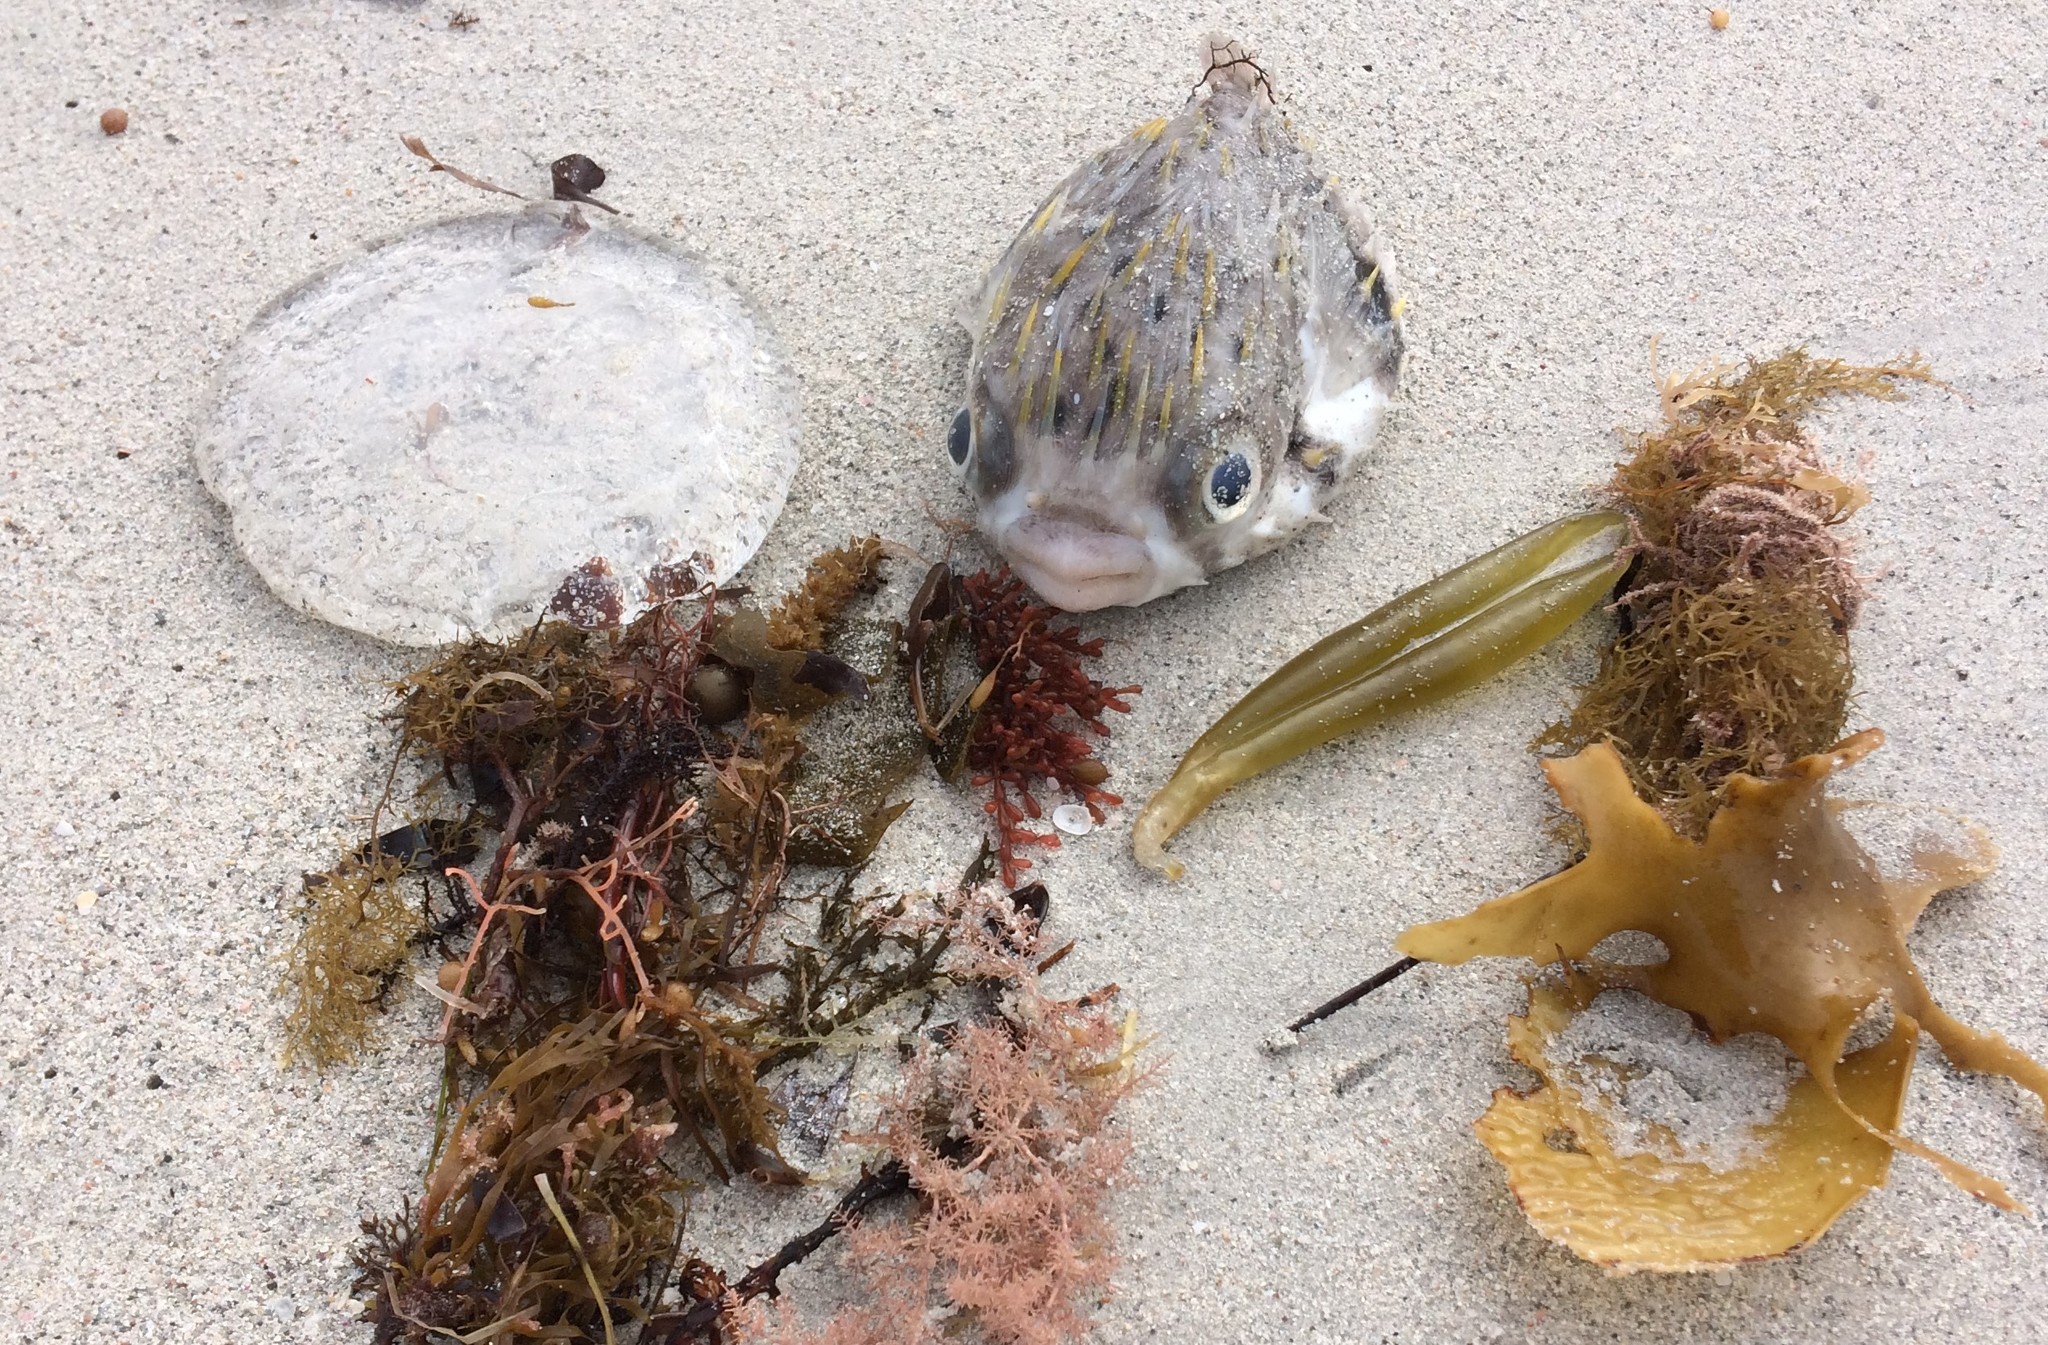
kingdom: Animalia
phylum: Chordata
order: Tetraodontiformes
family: Diodontidae
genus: Diodon
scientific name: Diodon nicthemerus
